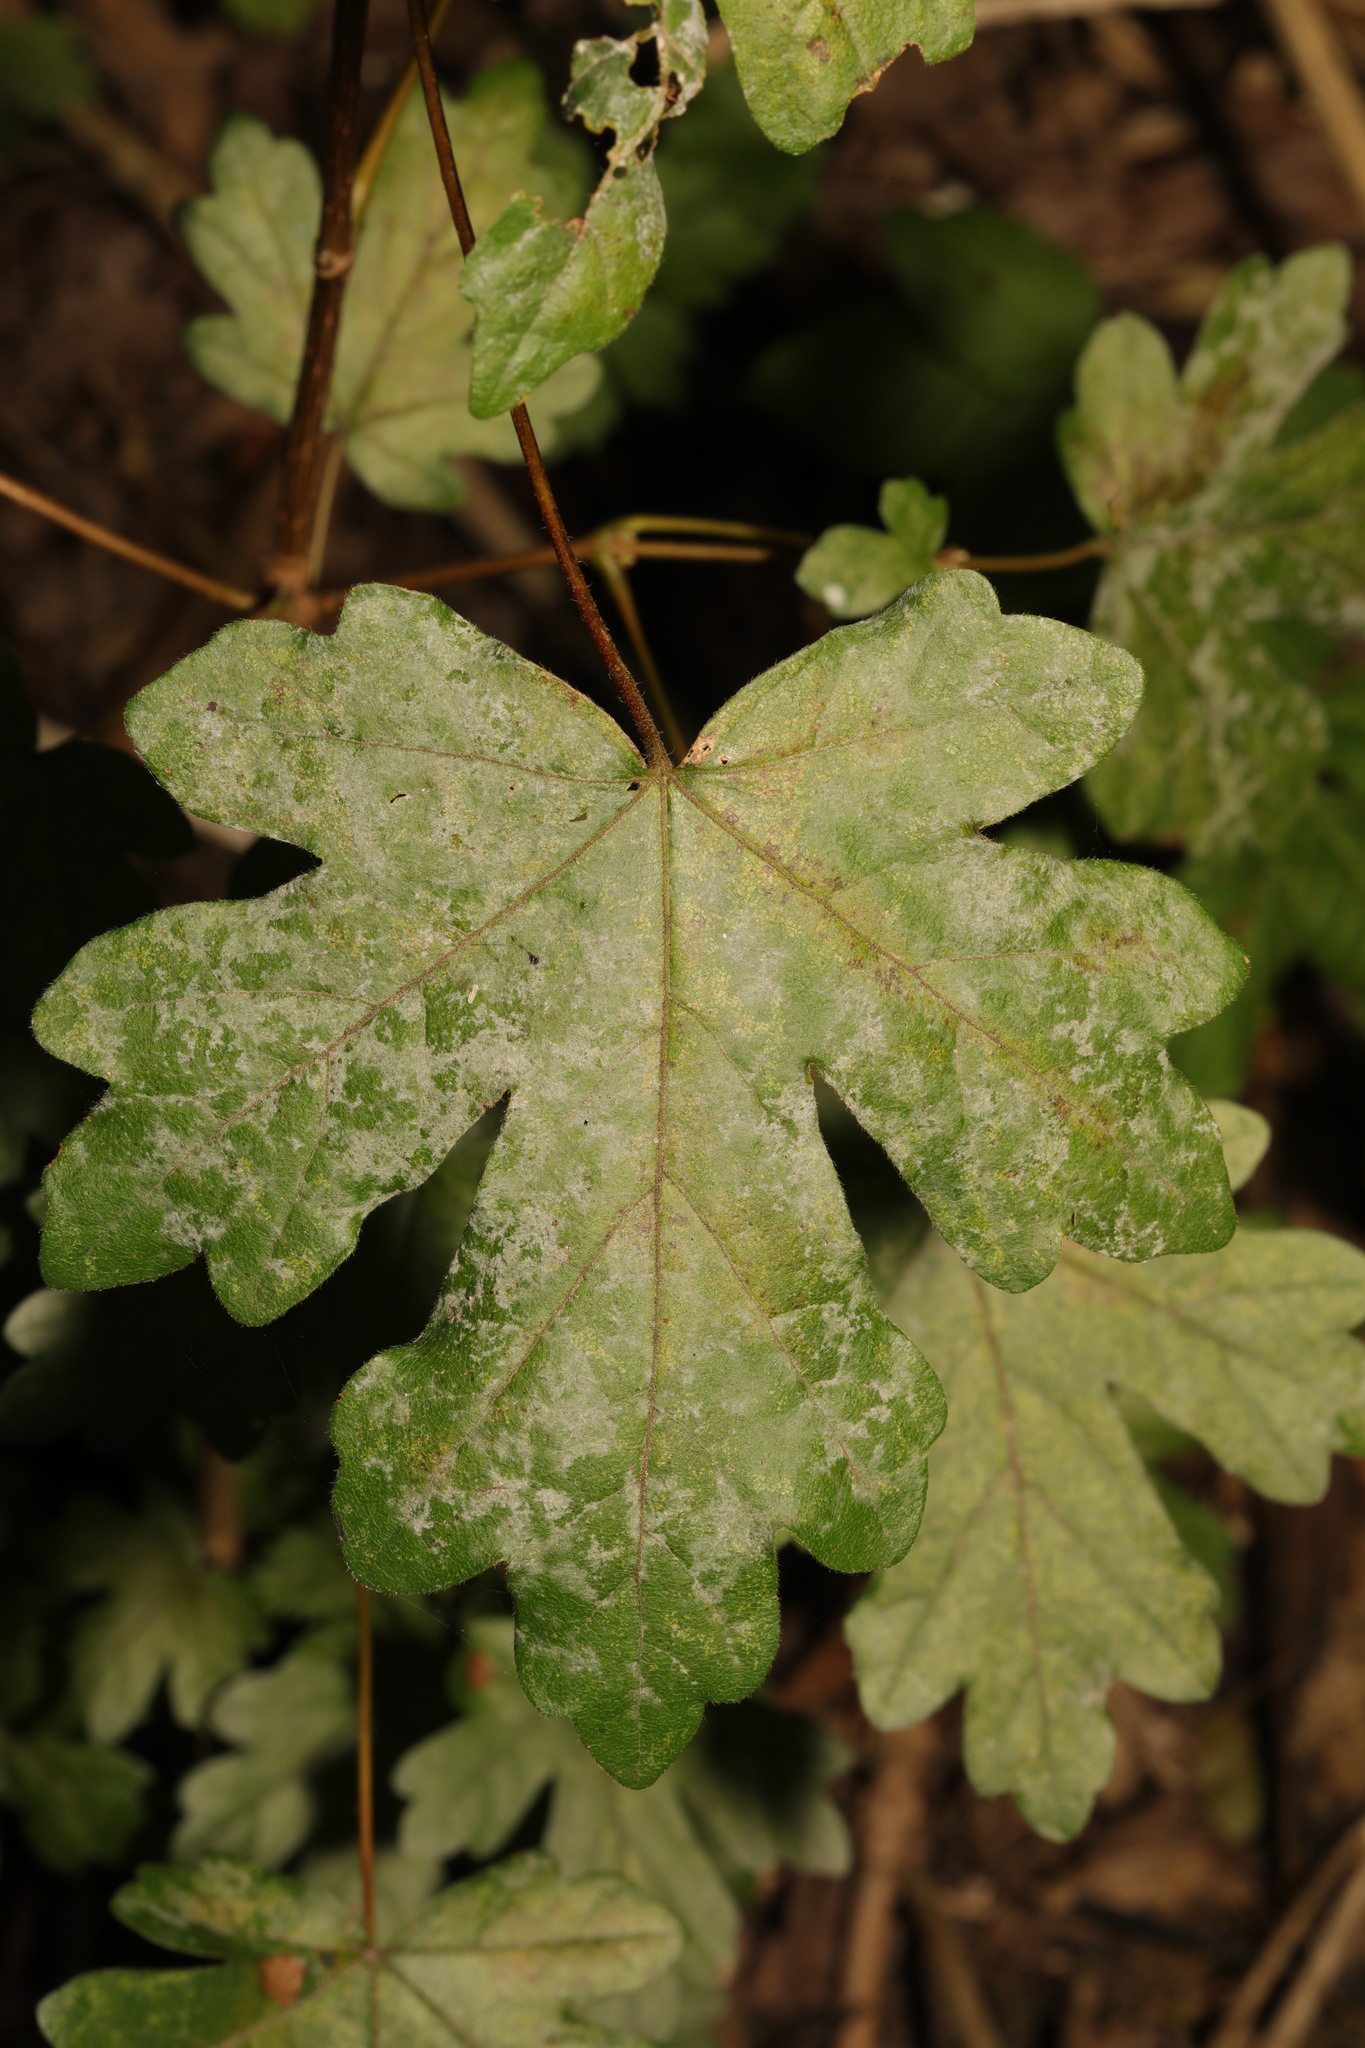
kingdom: Fungi
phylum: Ascomycota
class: Leotiomycetes
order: Helotiales
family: Erysiphaceae
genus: Sawadaea
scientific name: Sawadaea bicornis
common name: Maple mildew
